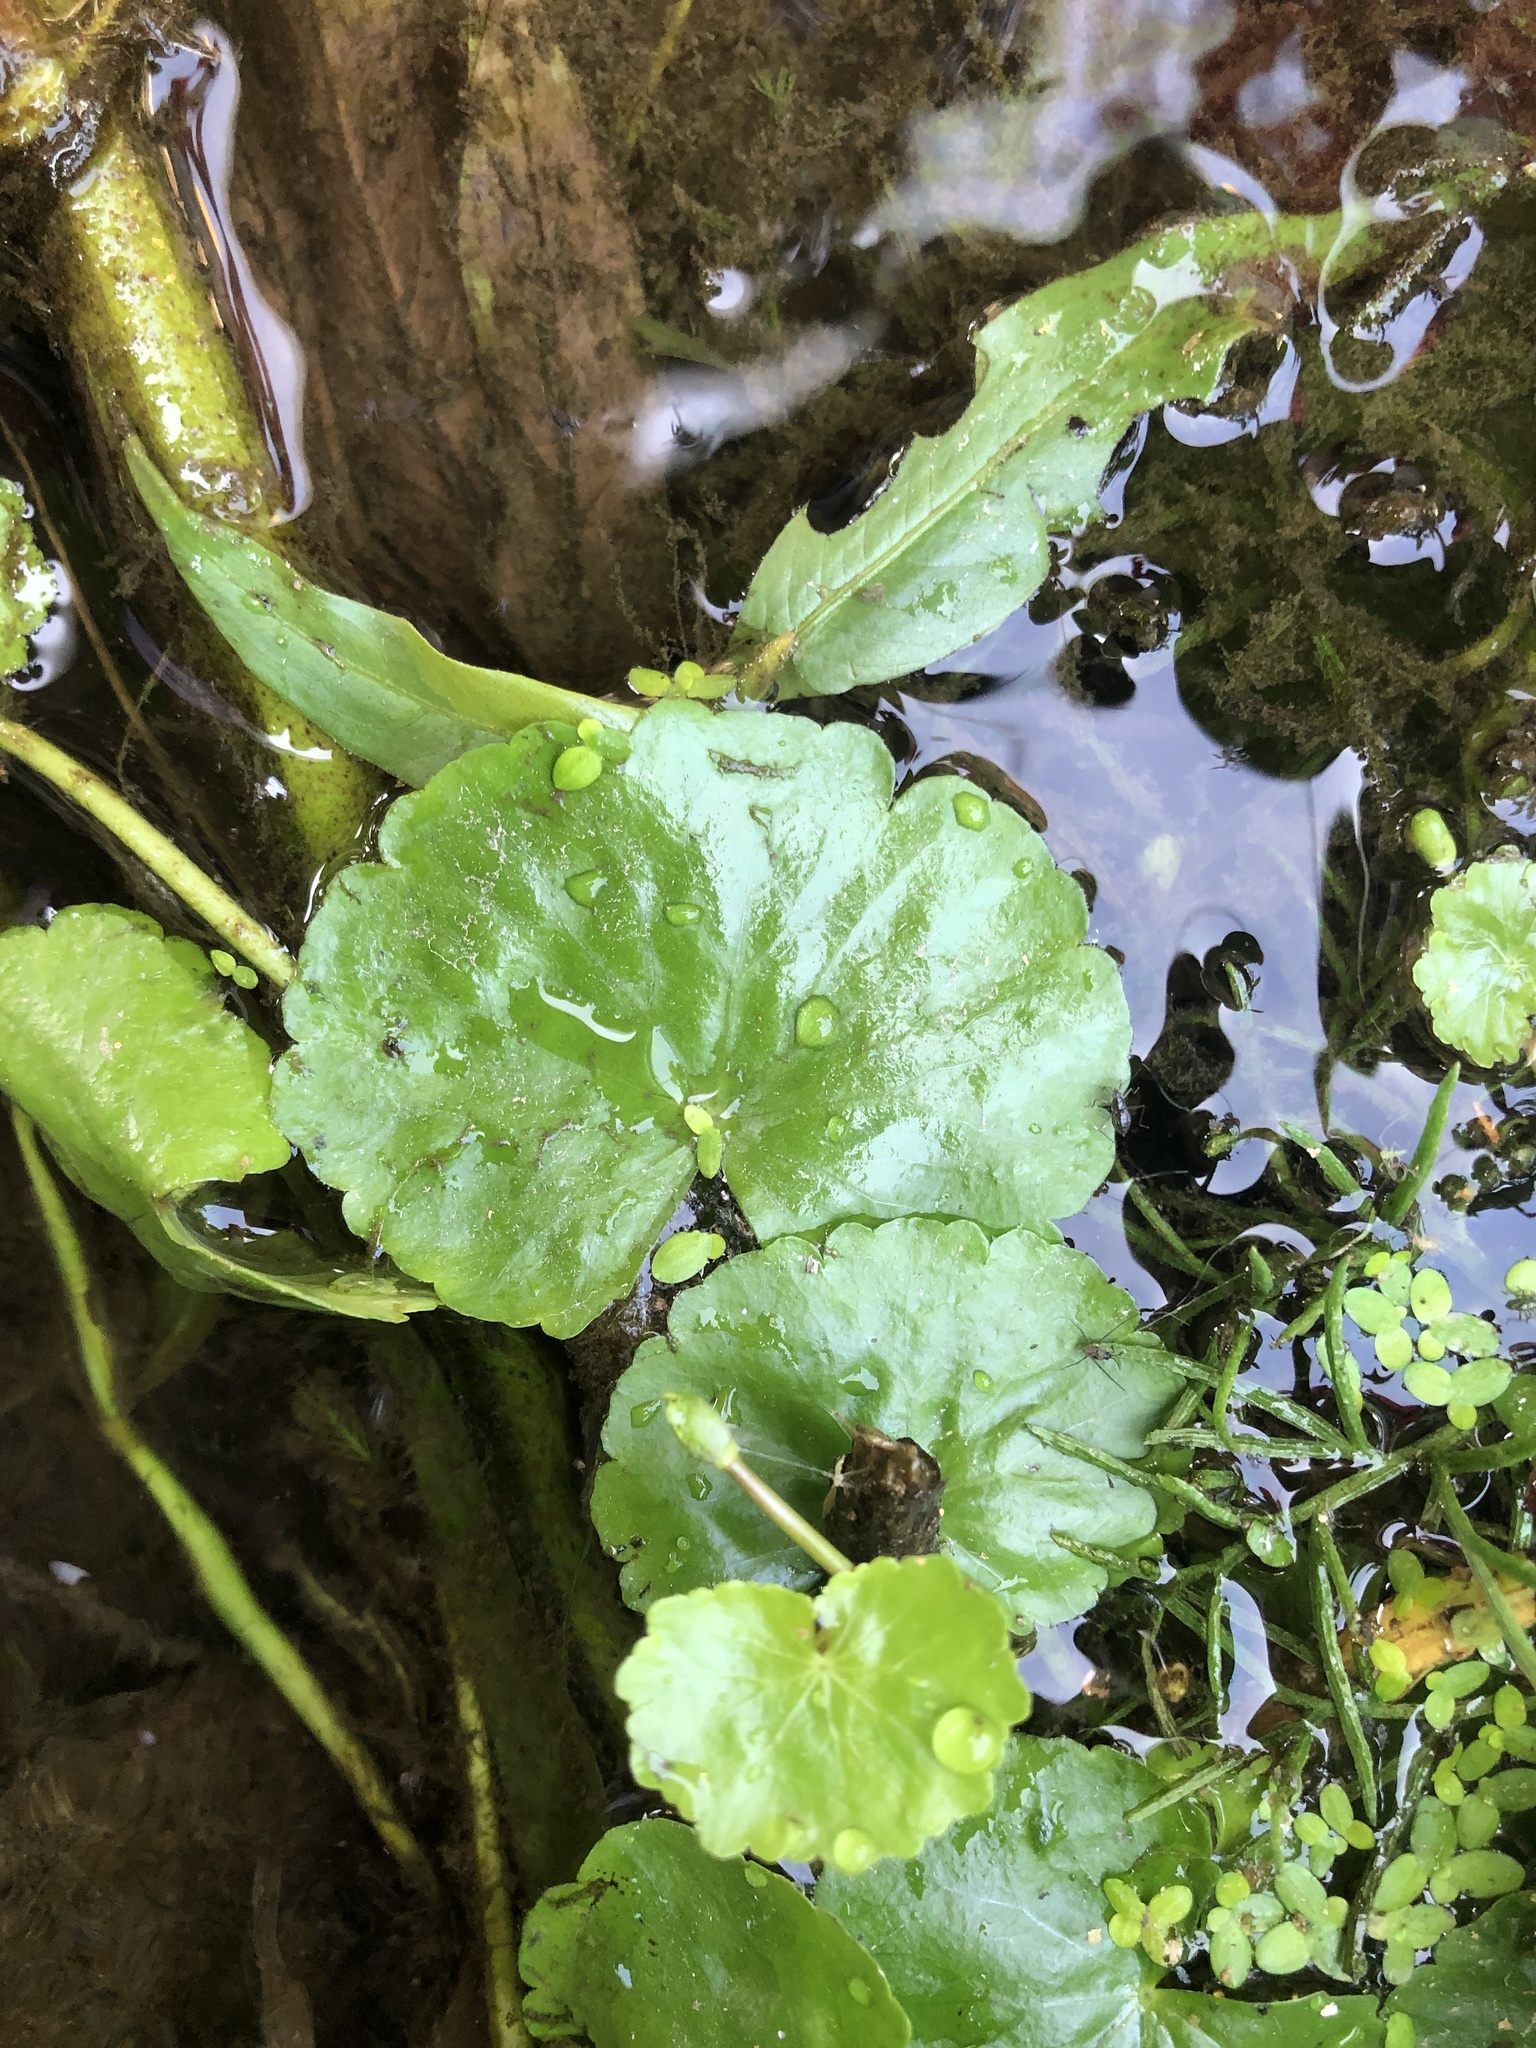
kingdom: Plantae
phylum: Tracheophyta
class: Magnoliopsida
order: Apiales
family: Araliaceae
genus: Hydrocotyle
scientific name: Hydrocotyle leucocephala
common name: Brazilian pennywort
